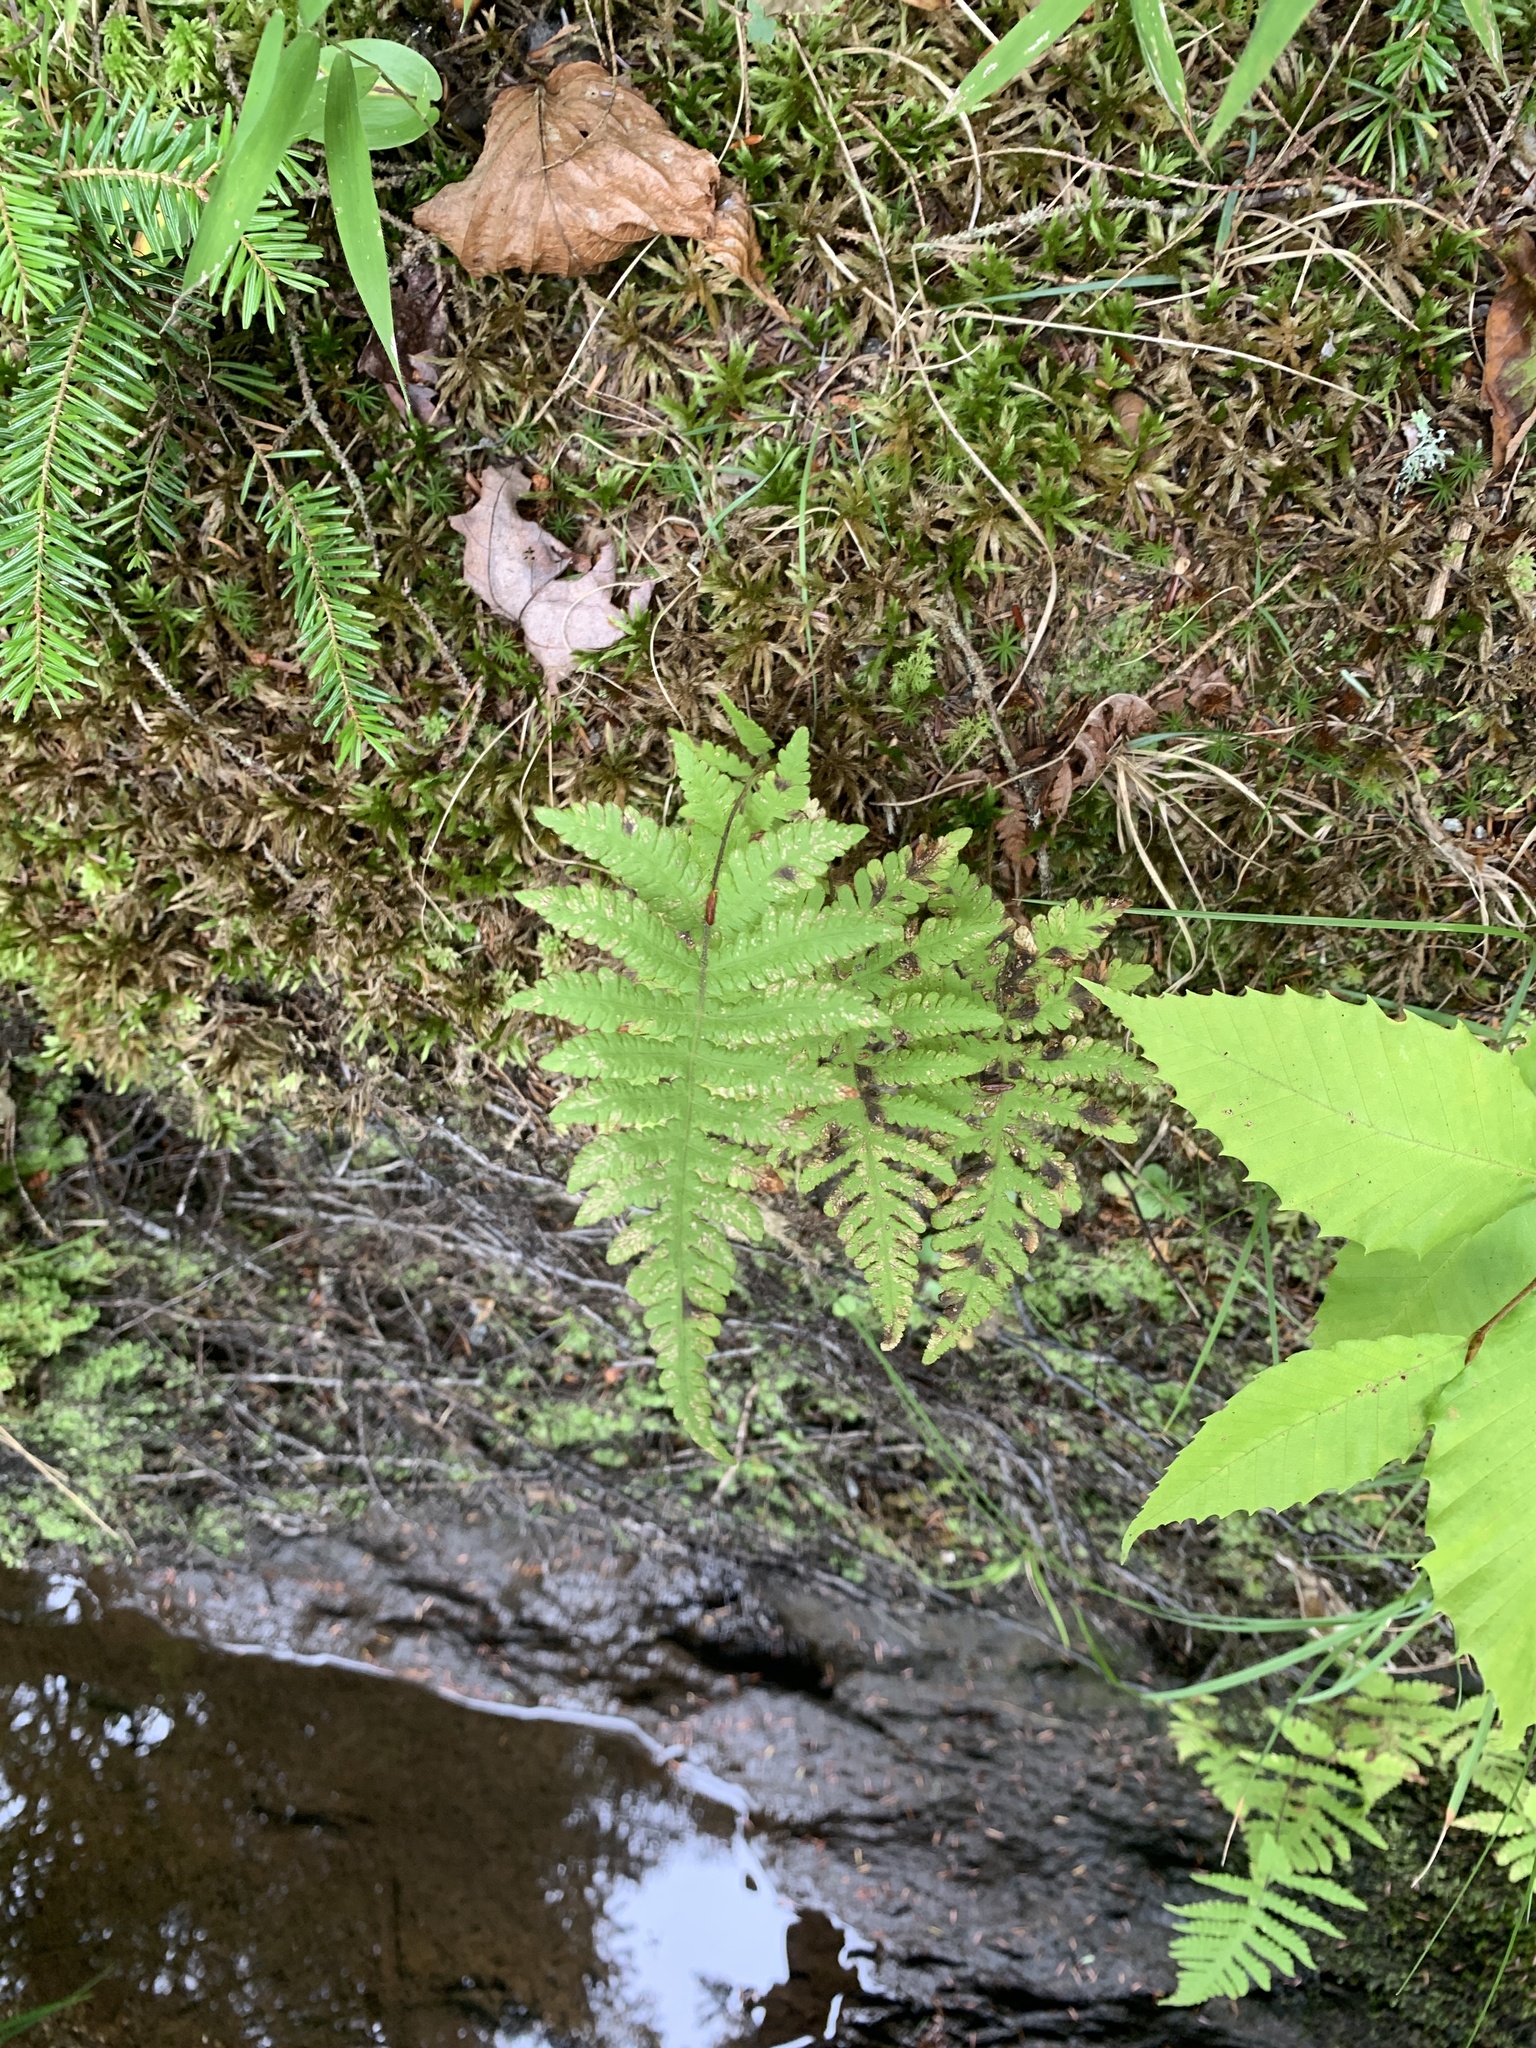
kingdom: Plantae
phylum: Tracheophyta
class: Polypodiopsida
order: Polypodiales
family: Thelypteridaceae
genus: Phegopteris
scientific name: Phegopteris connectilis
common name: Beech fern
